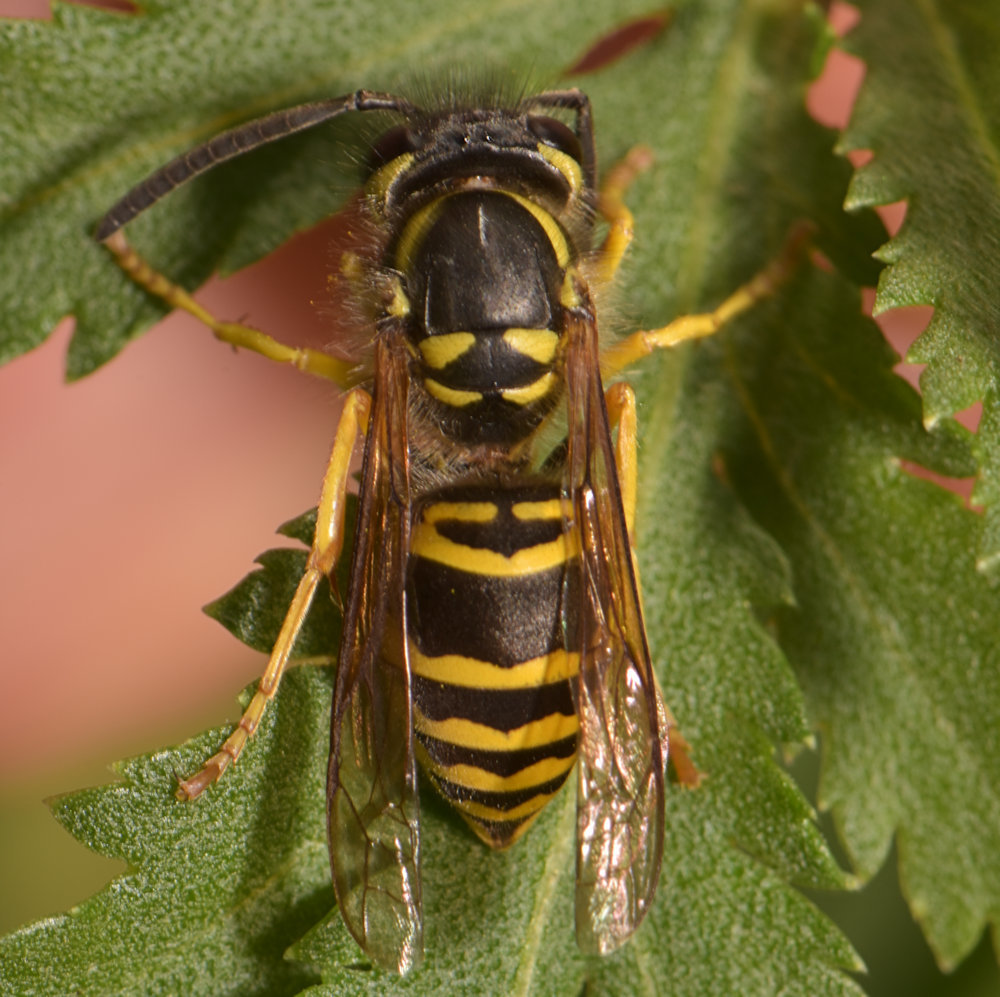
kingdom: Animalia
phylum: Arthropoda
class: Insecta
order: Hymenoptera
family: Vespidae
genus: Vespula
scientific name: Vespula maculifrons
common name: Eastern yellowjacket
